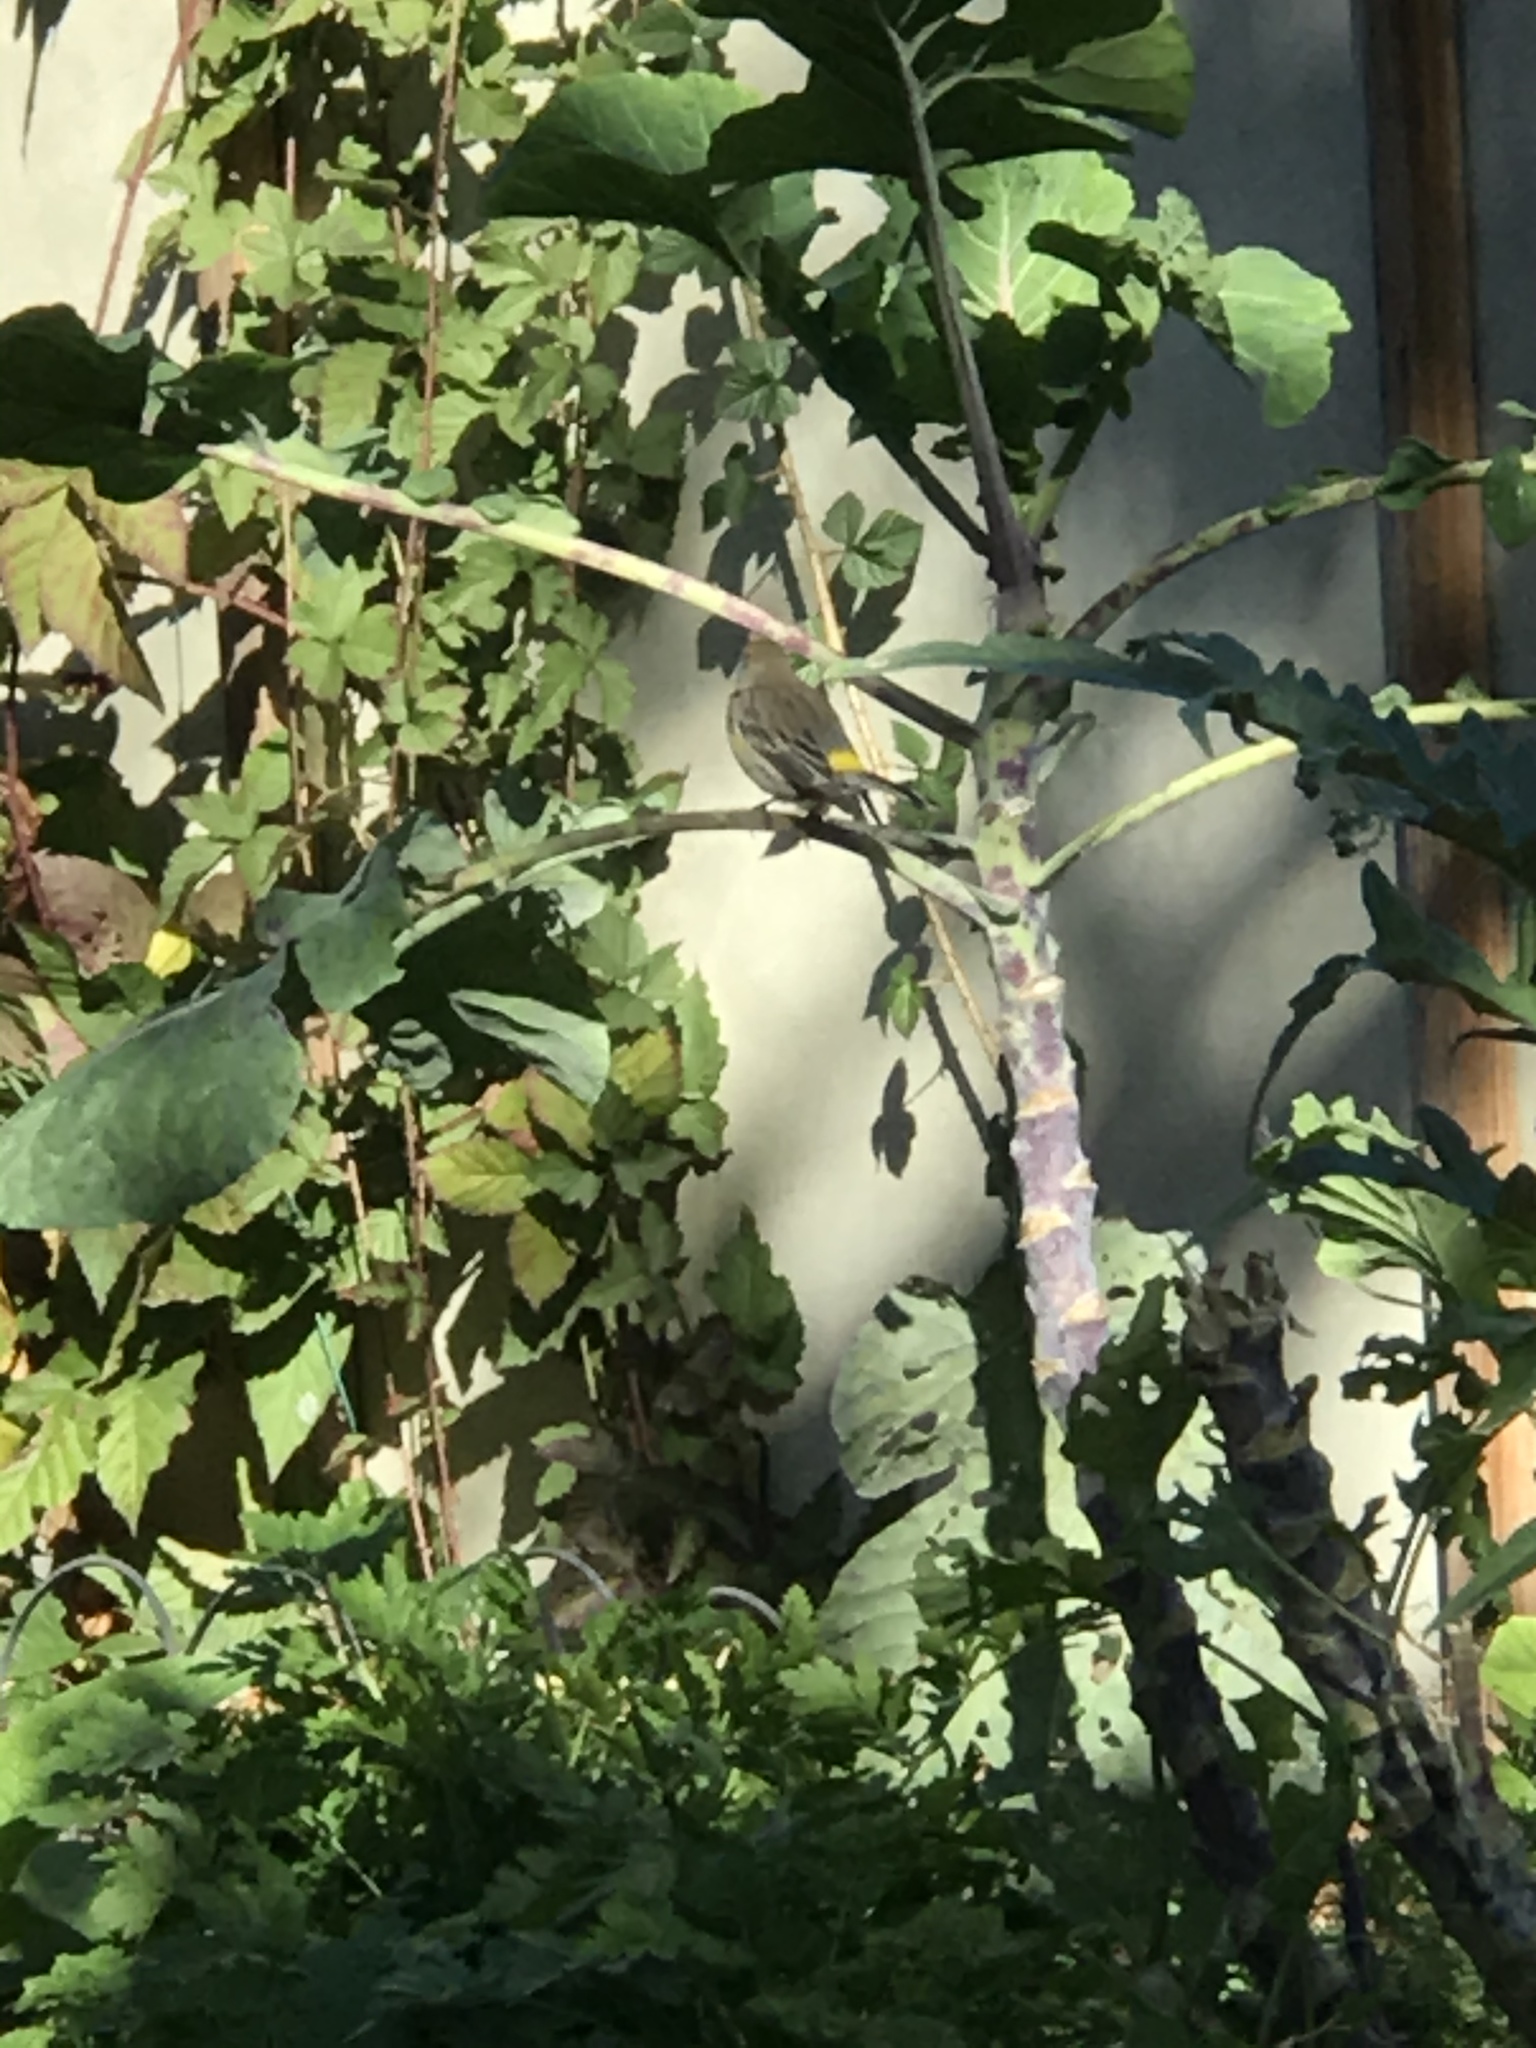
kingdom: Animalia
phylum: Chordata
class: Aves
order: Passeriformes
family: Parulidae
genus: Setophaga
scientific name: Setophaga coronata
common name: Myrtle warbler
